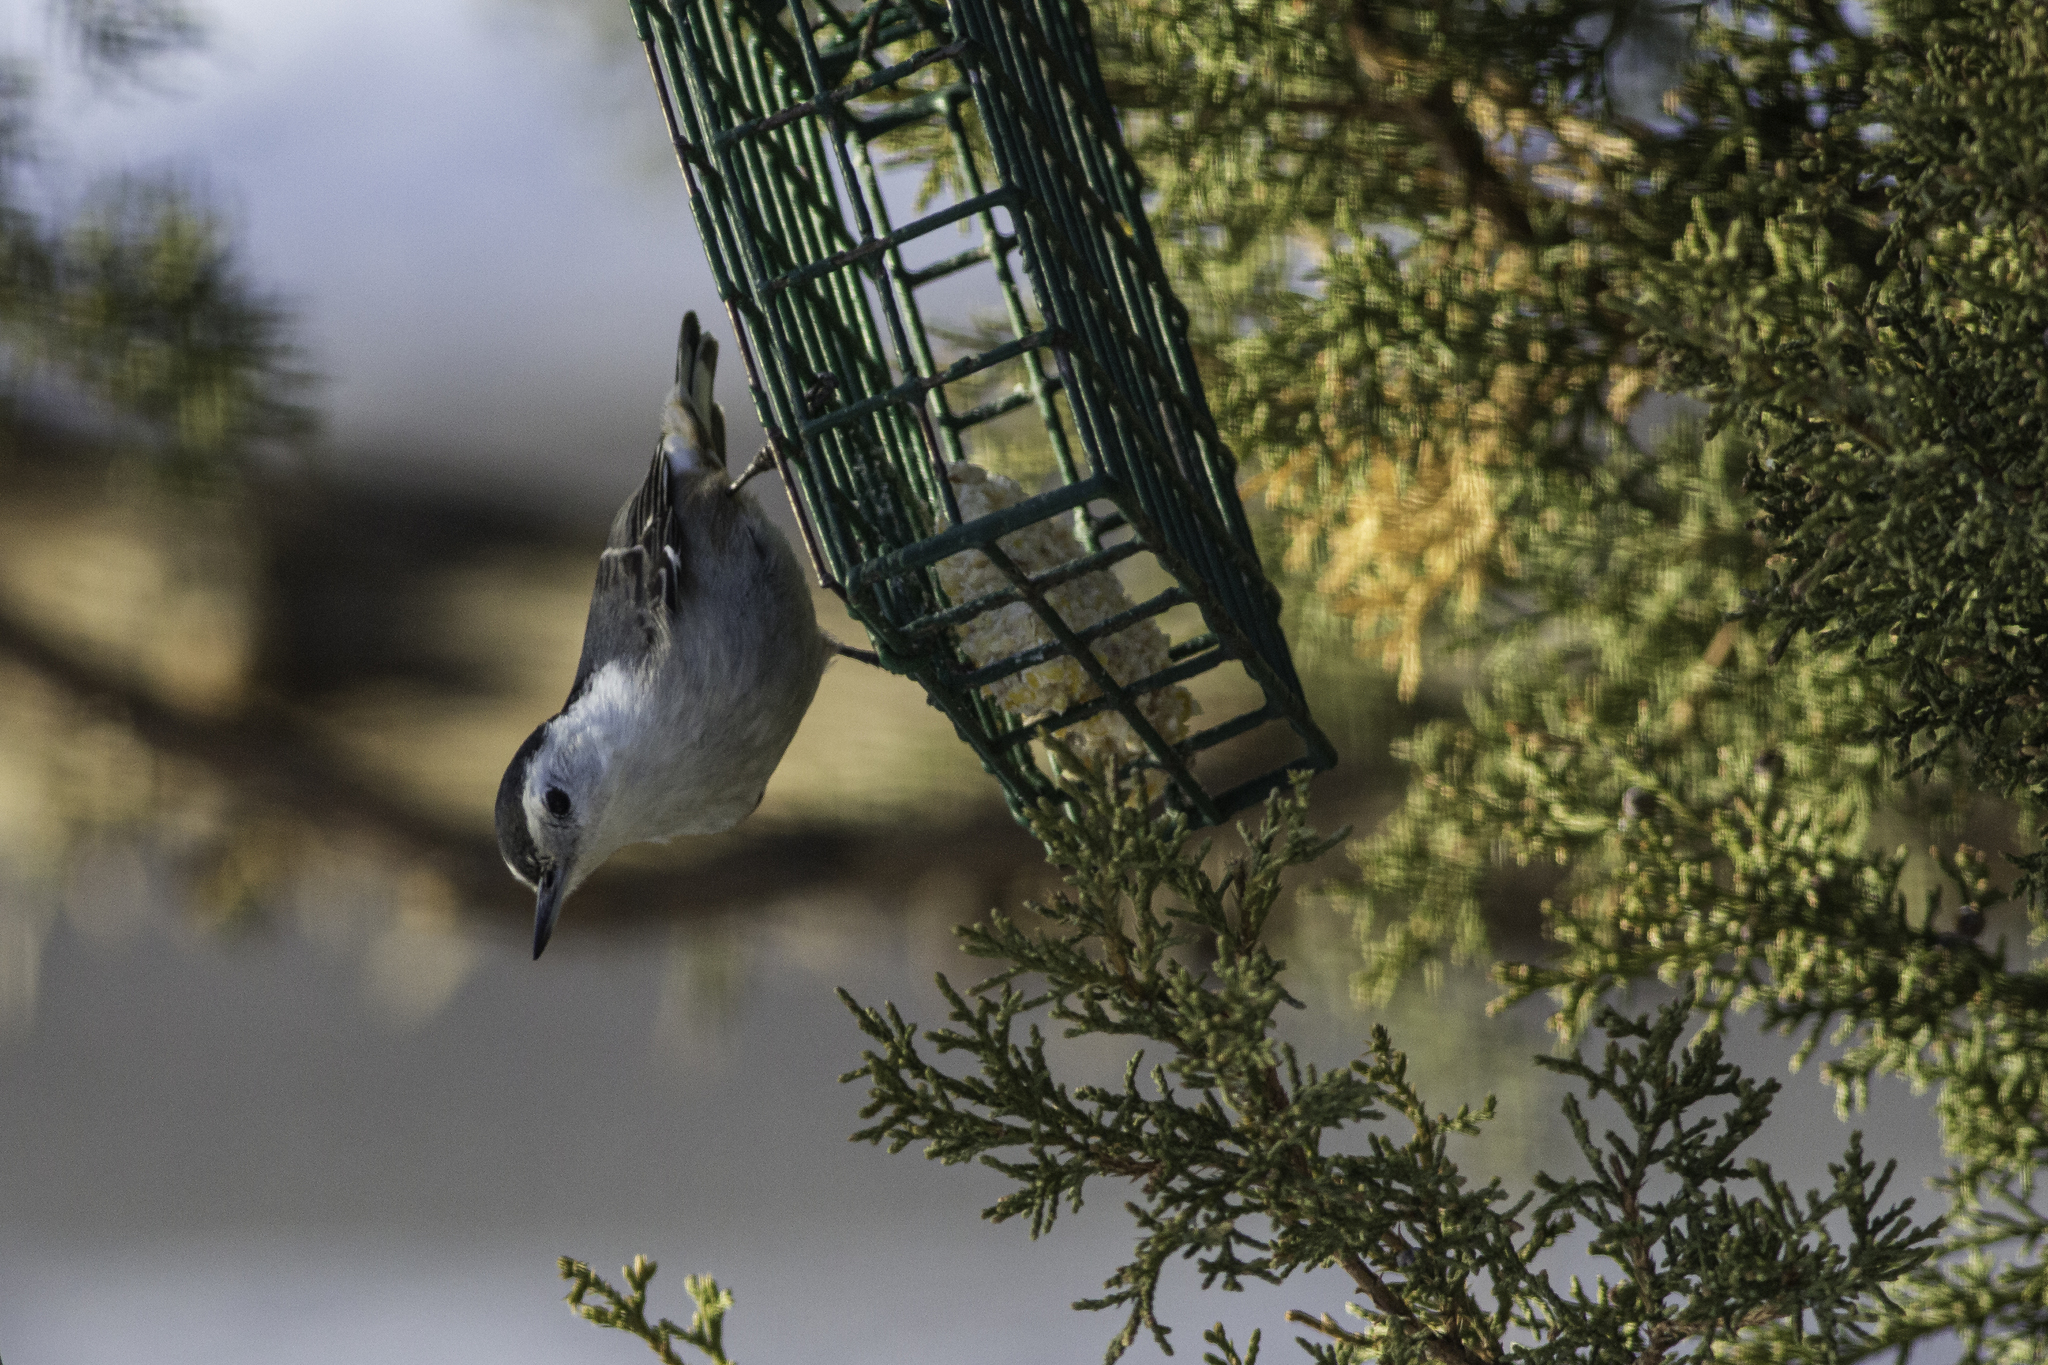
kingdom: Animalia
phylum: Chordata
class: Aves
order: Passeriformes
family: Sittidae
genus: Sitta
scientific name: Sitta carolinensis
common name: White-breasted nuthatch
